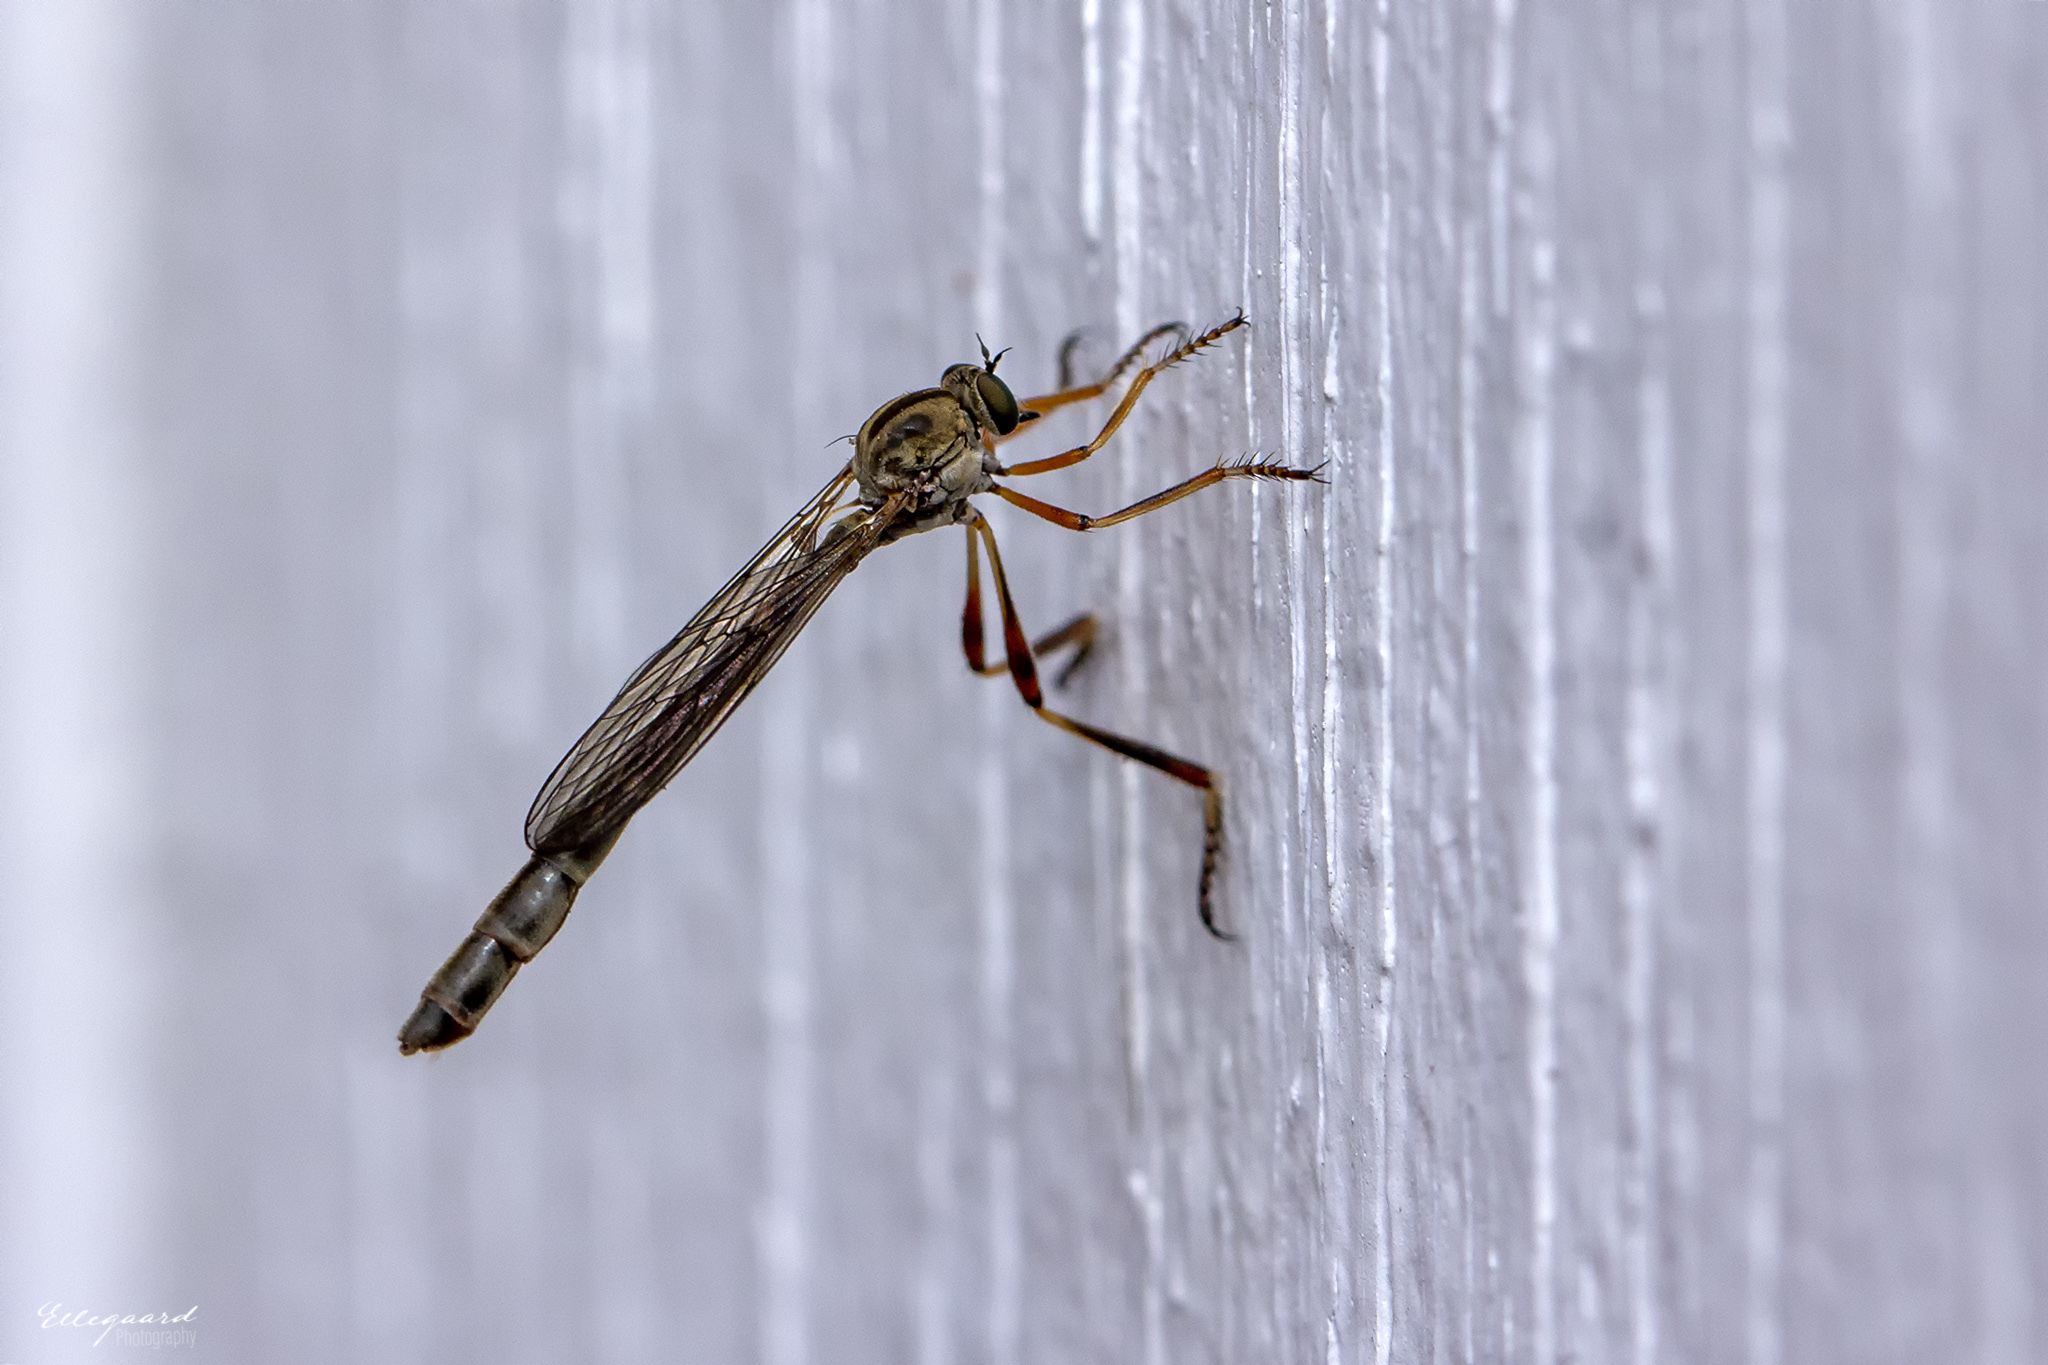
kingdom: Animalia
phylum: Arthropoda
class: Insecta
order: Diptera
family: Asilidae
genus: Leptogaster
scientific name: Leptogaster guttiventris
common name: Dashed slender robberfly
